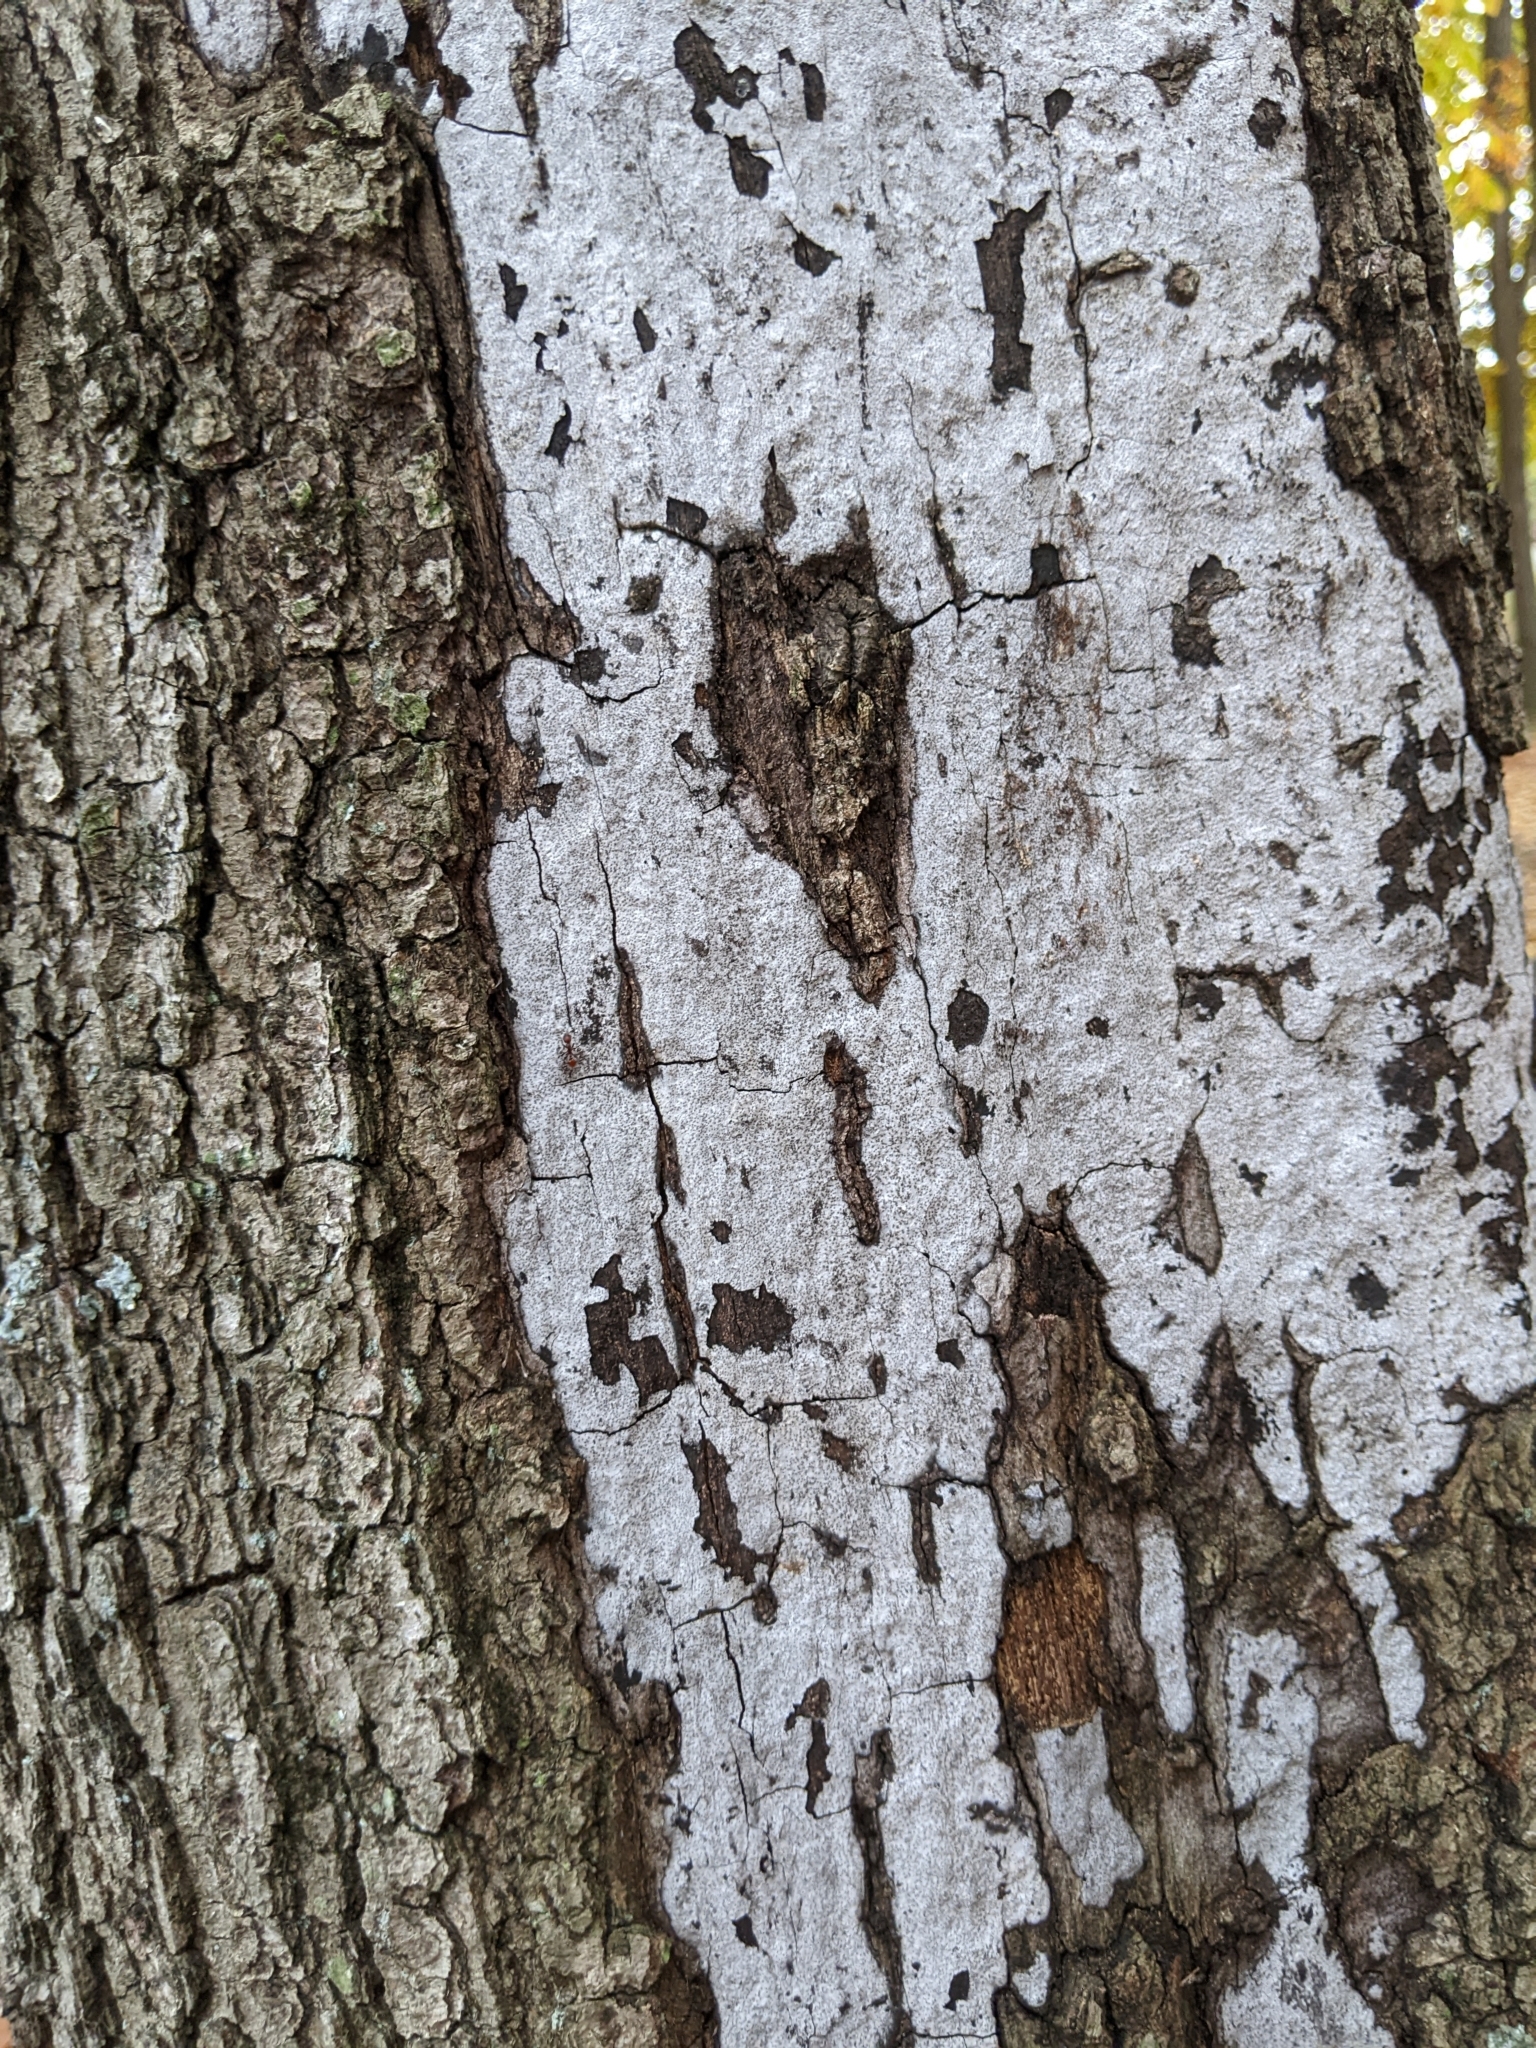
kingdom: Fungi
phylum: Ascomycota
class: Sordariomycetes
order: Xylariales
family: Graphostromataceae
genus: Biscogniauxia
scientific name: Biscogniauxia atropunctata
